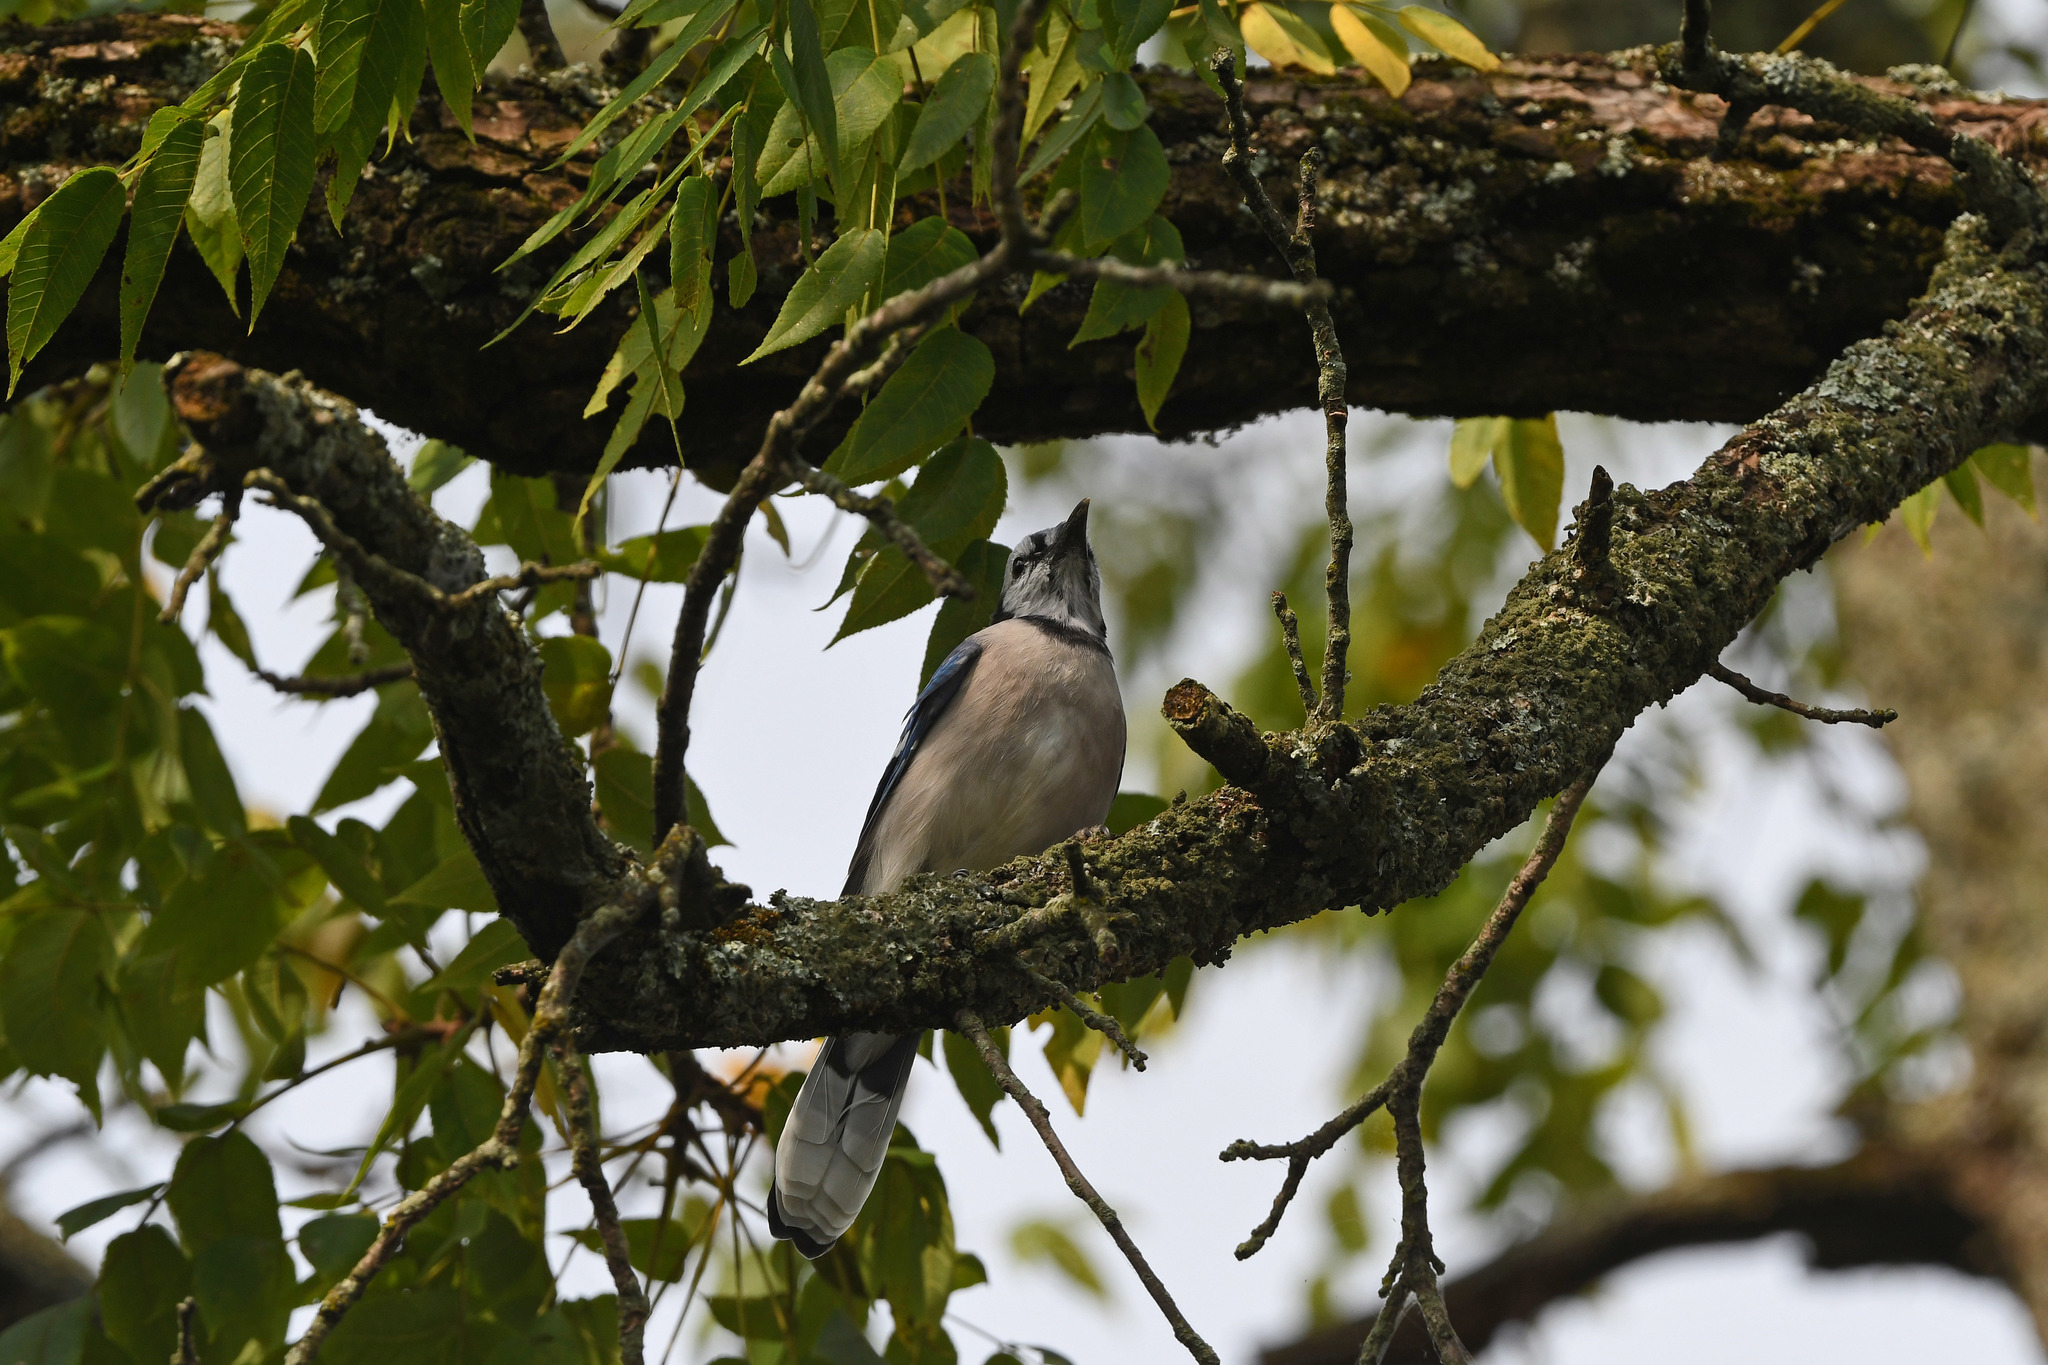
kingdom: Animalia
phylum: Chordata
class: Aves
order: Passeriformes
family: Corvidae
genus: Cyanocitta
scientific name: Cyanocitta cristata
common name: Blue jay
